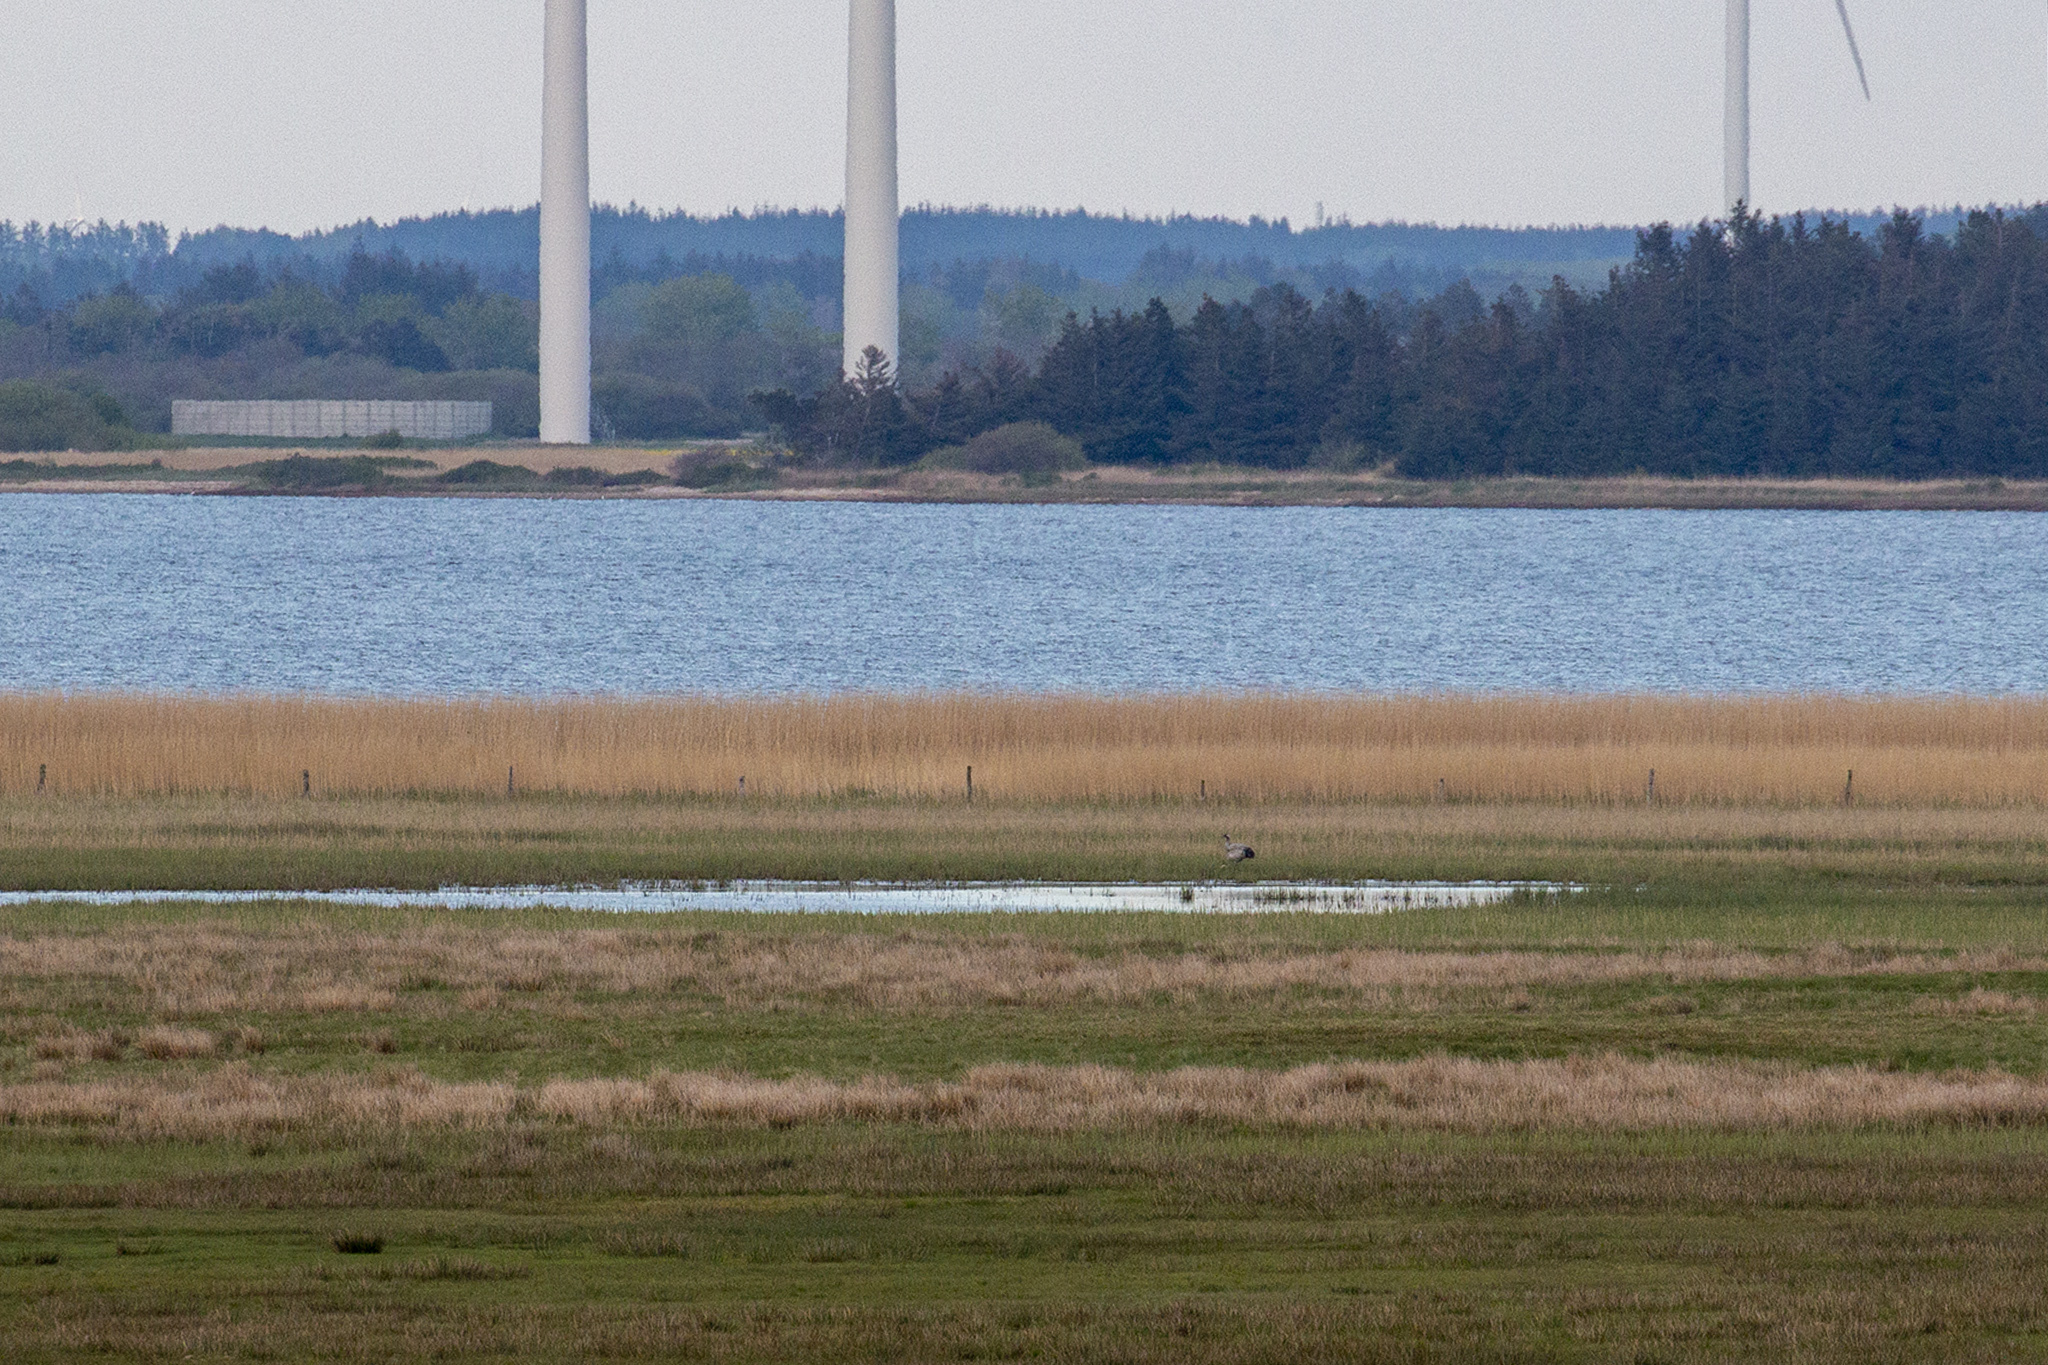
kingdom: Animalia
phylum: Chordata
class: Aves
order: Gruiformes
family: Gruidae
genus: Grus
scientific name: Grus grus
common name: Common crane
